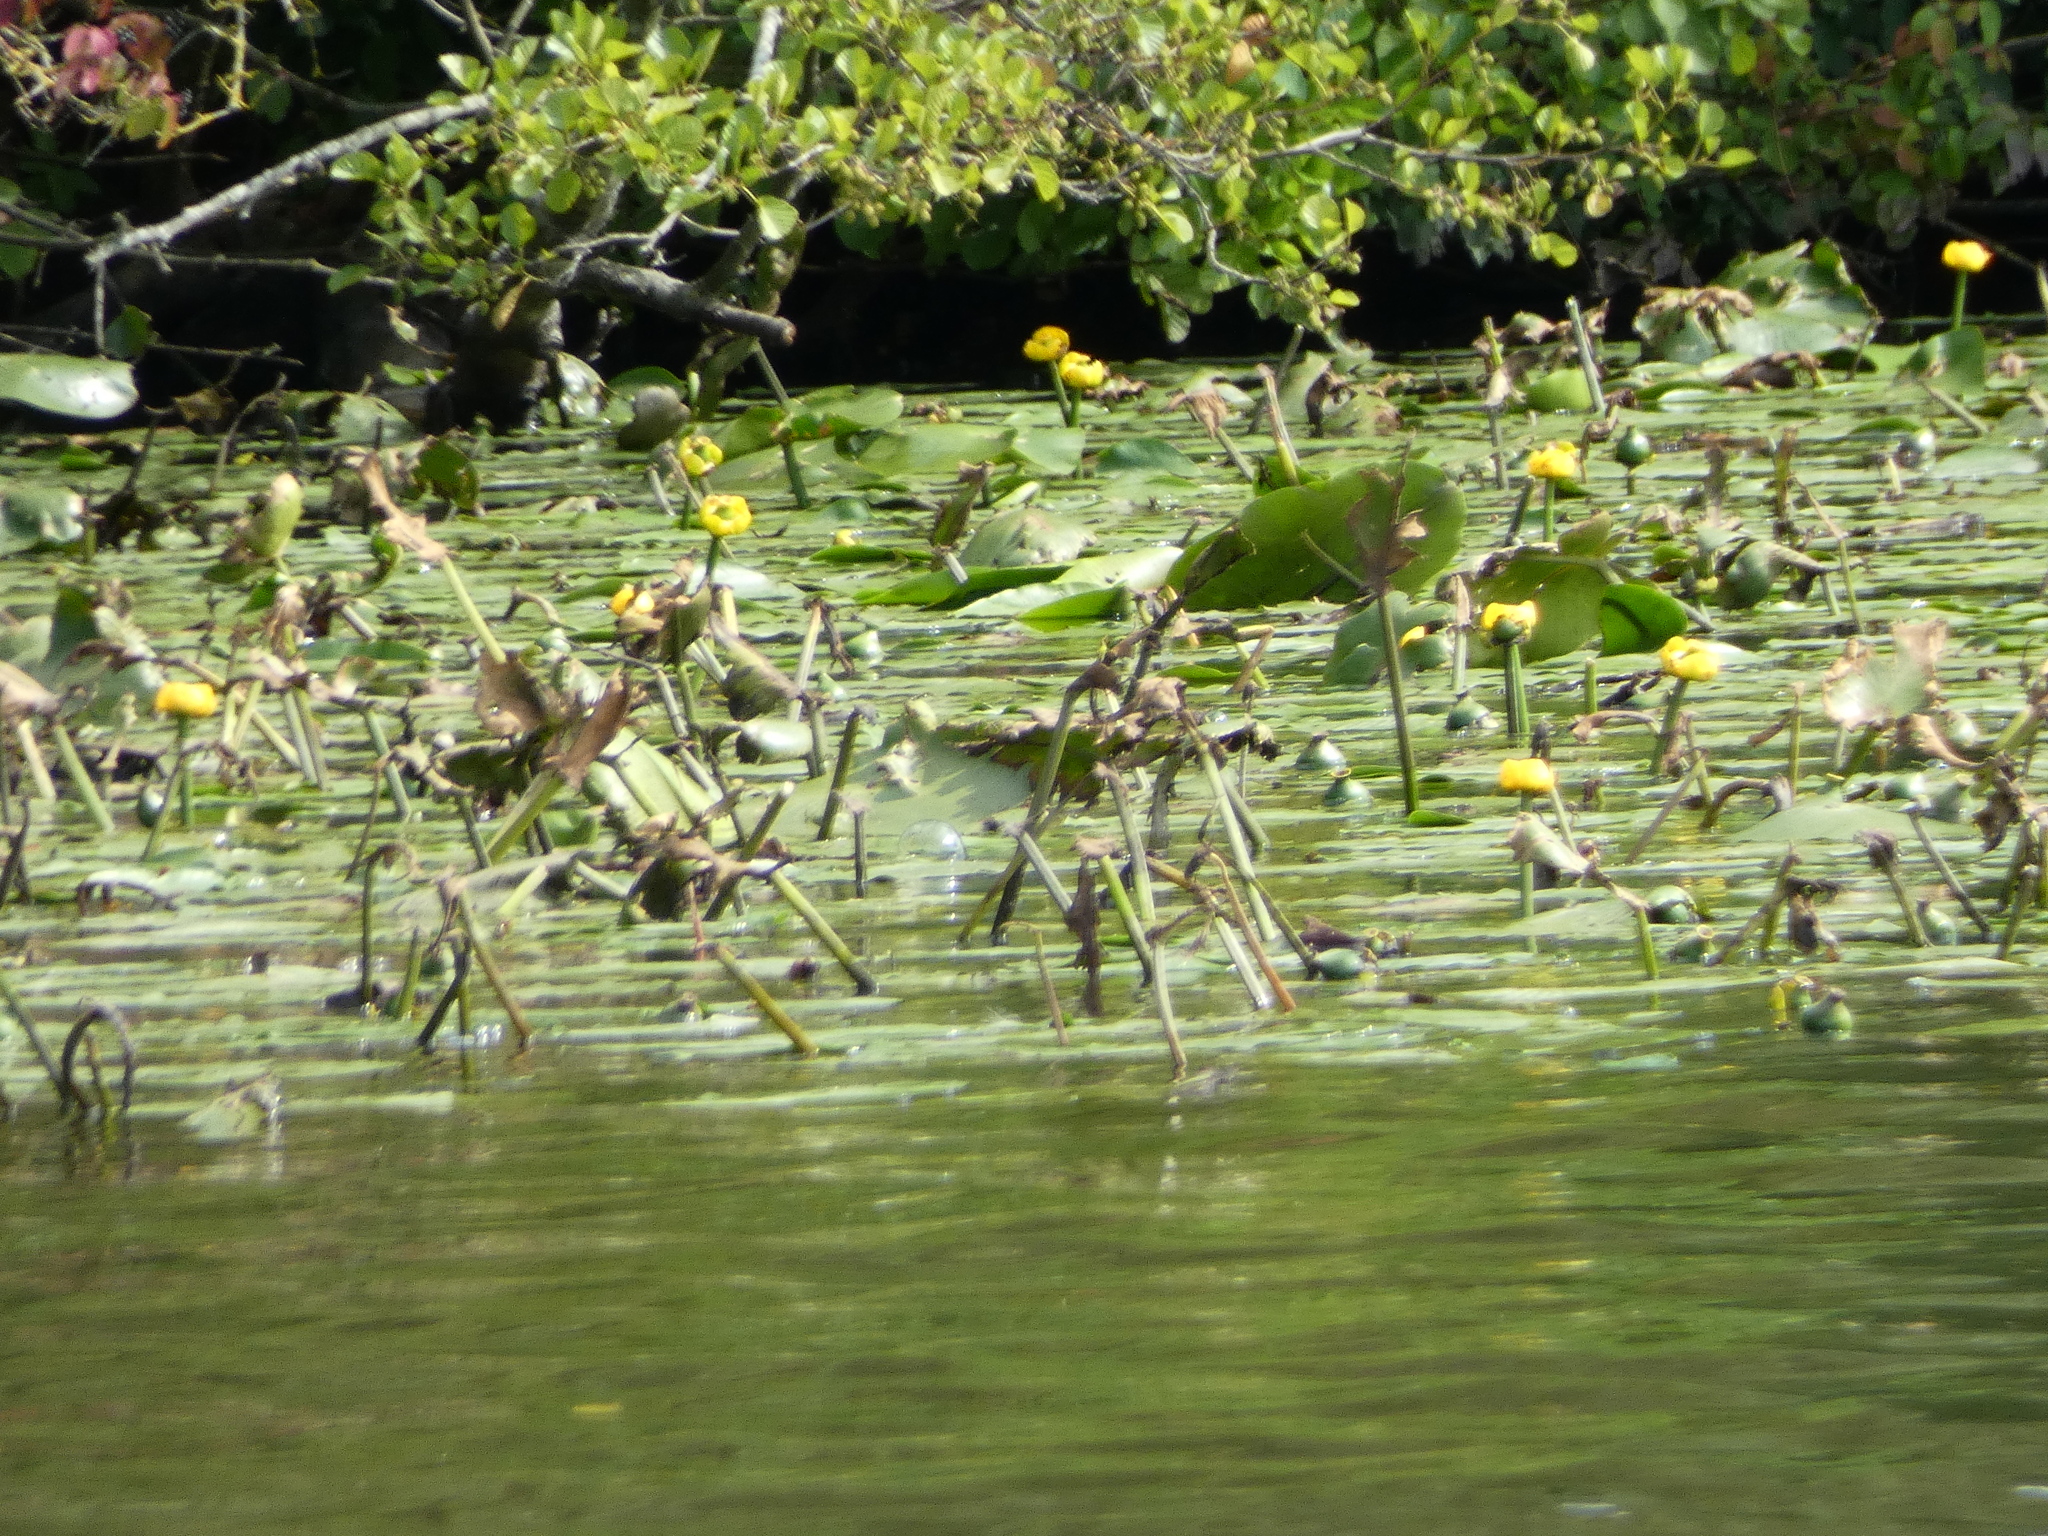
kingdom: Plantae
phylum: Tracheophyta
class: Magnoliopsida
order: Nymphaeales
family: Nymphaeaceae
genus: Nuphar
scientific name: Nuphar lutea
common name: Yellow water-lily
